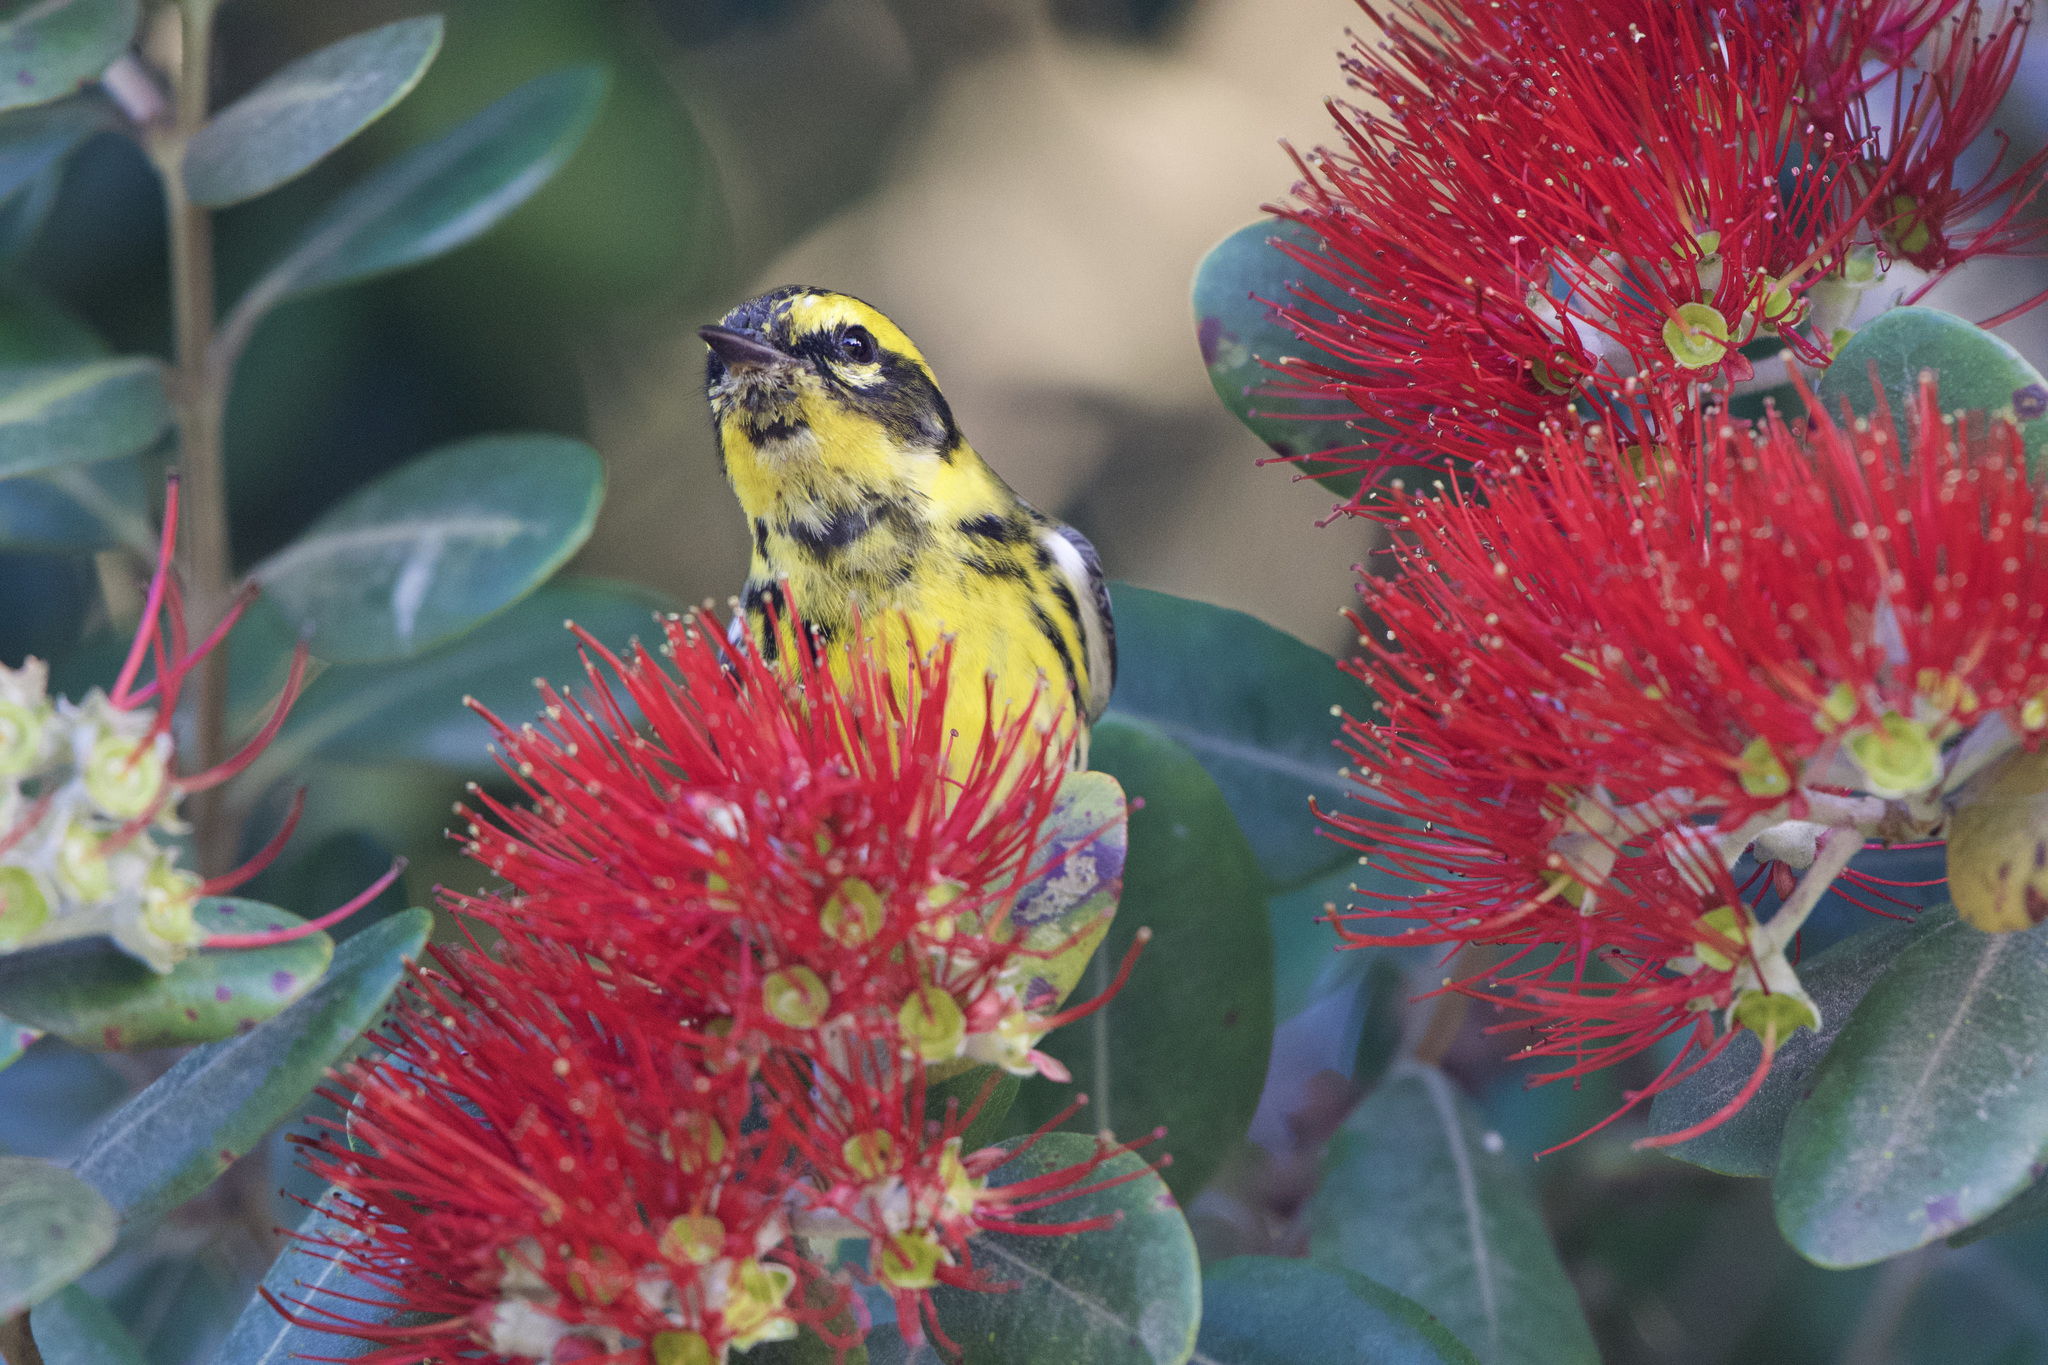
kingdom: Animalia
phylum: Chordata
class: Aves
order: Passeriformes
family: Parulidae
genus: Setophaga
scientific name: Setophaga townsendi
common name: Townsend's warbler
